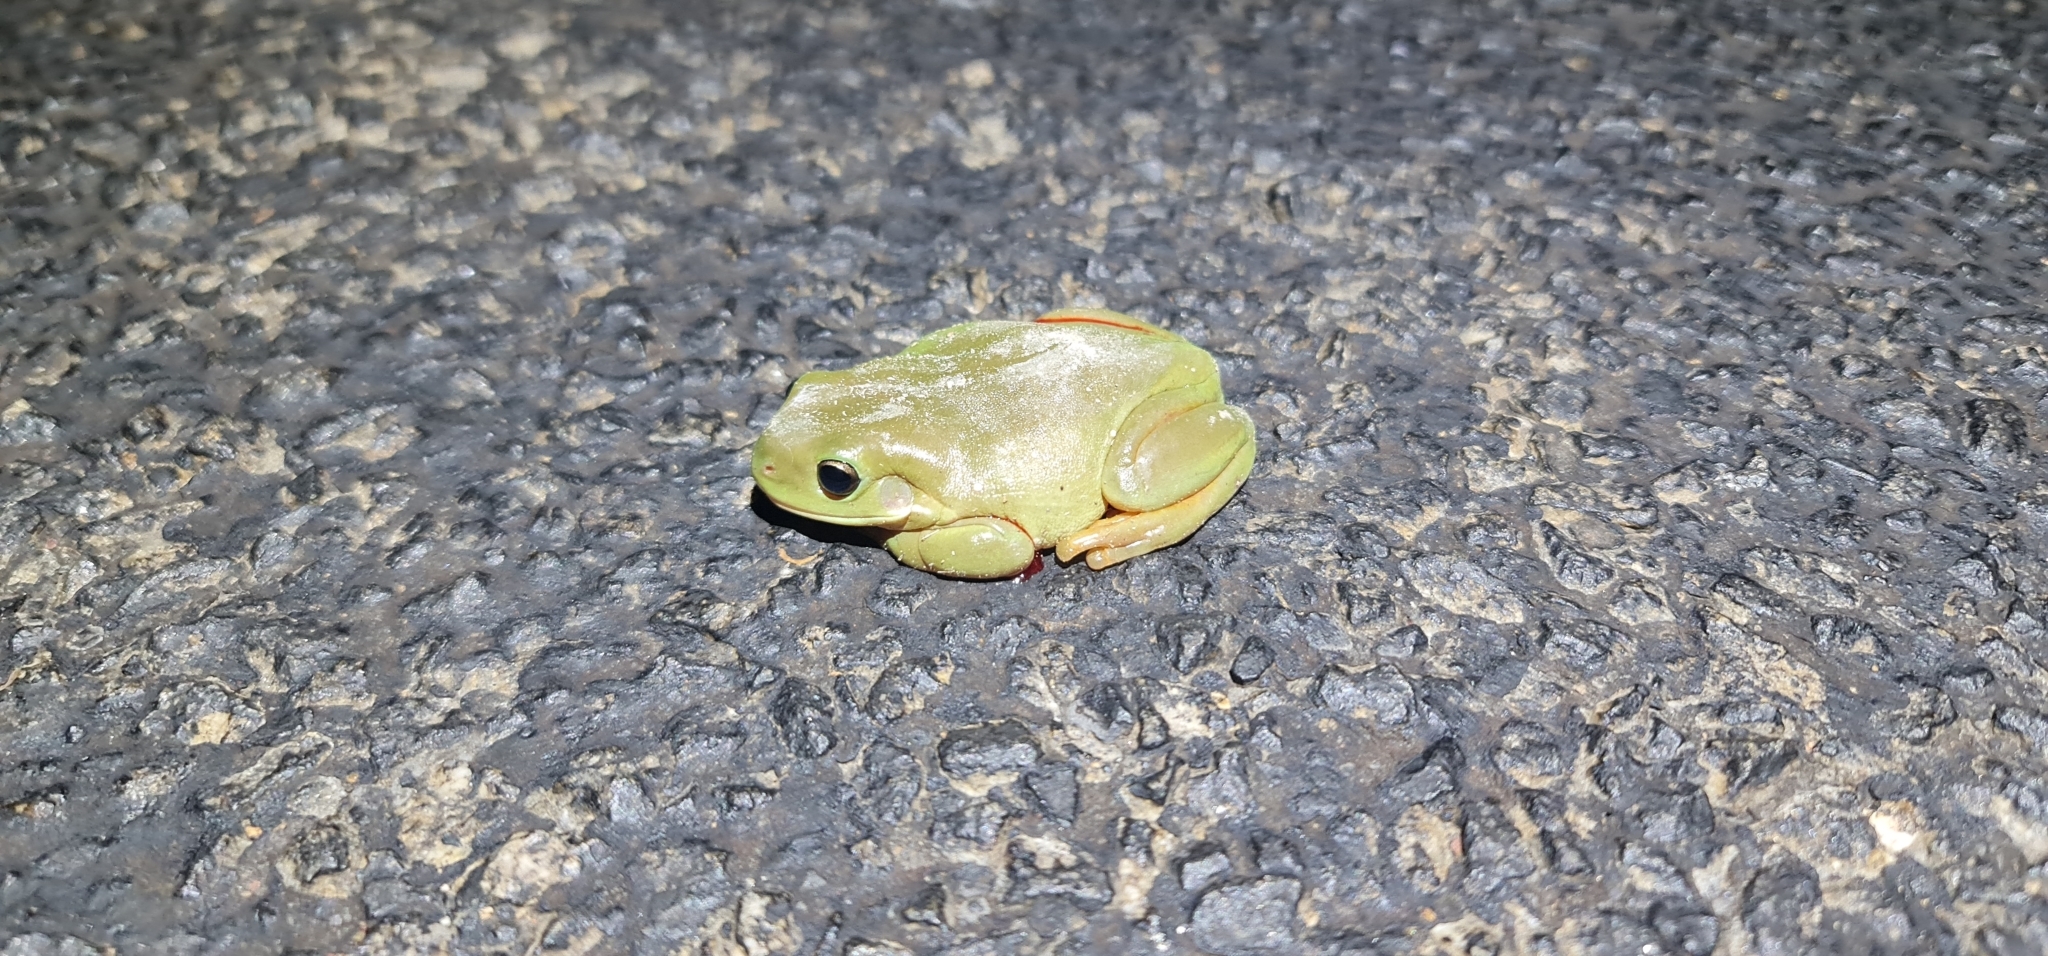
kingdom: Animalia
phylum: Chordata
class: Amphibia
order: Anura
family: Pelodryadidae
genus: Ranoidea
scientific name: Ranoidea caerulea
